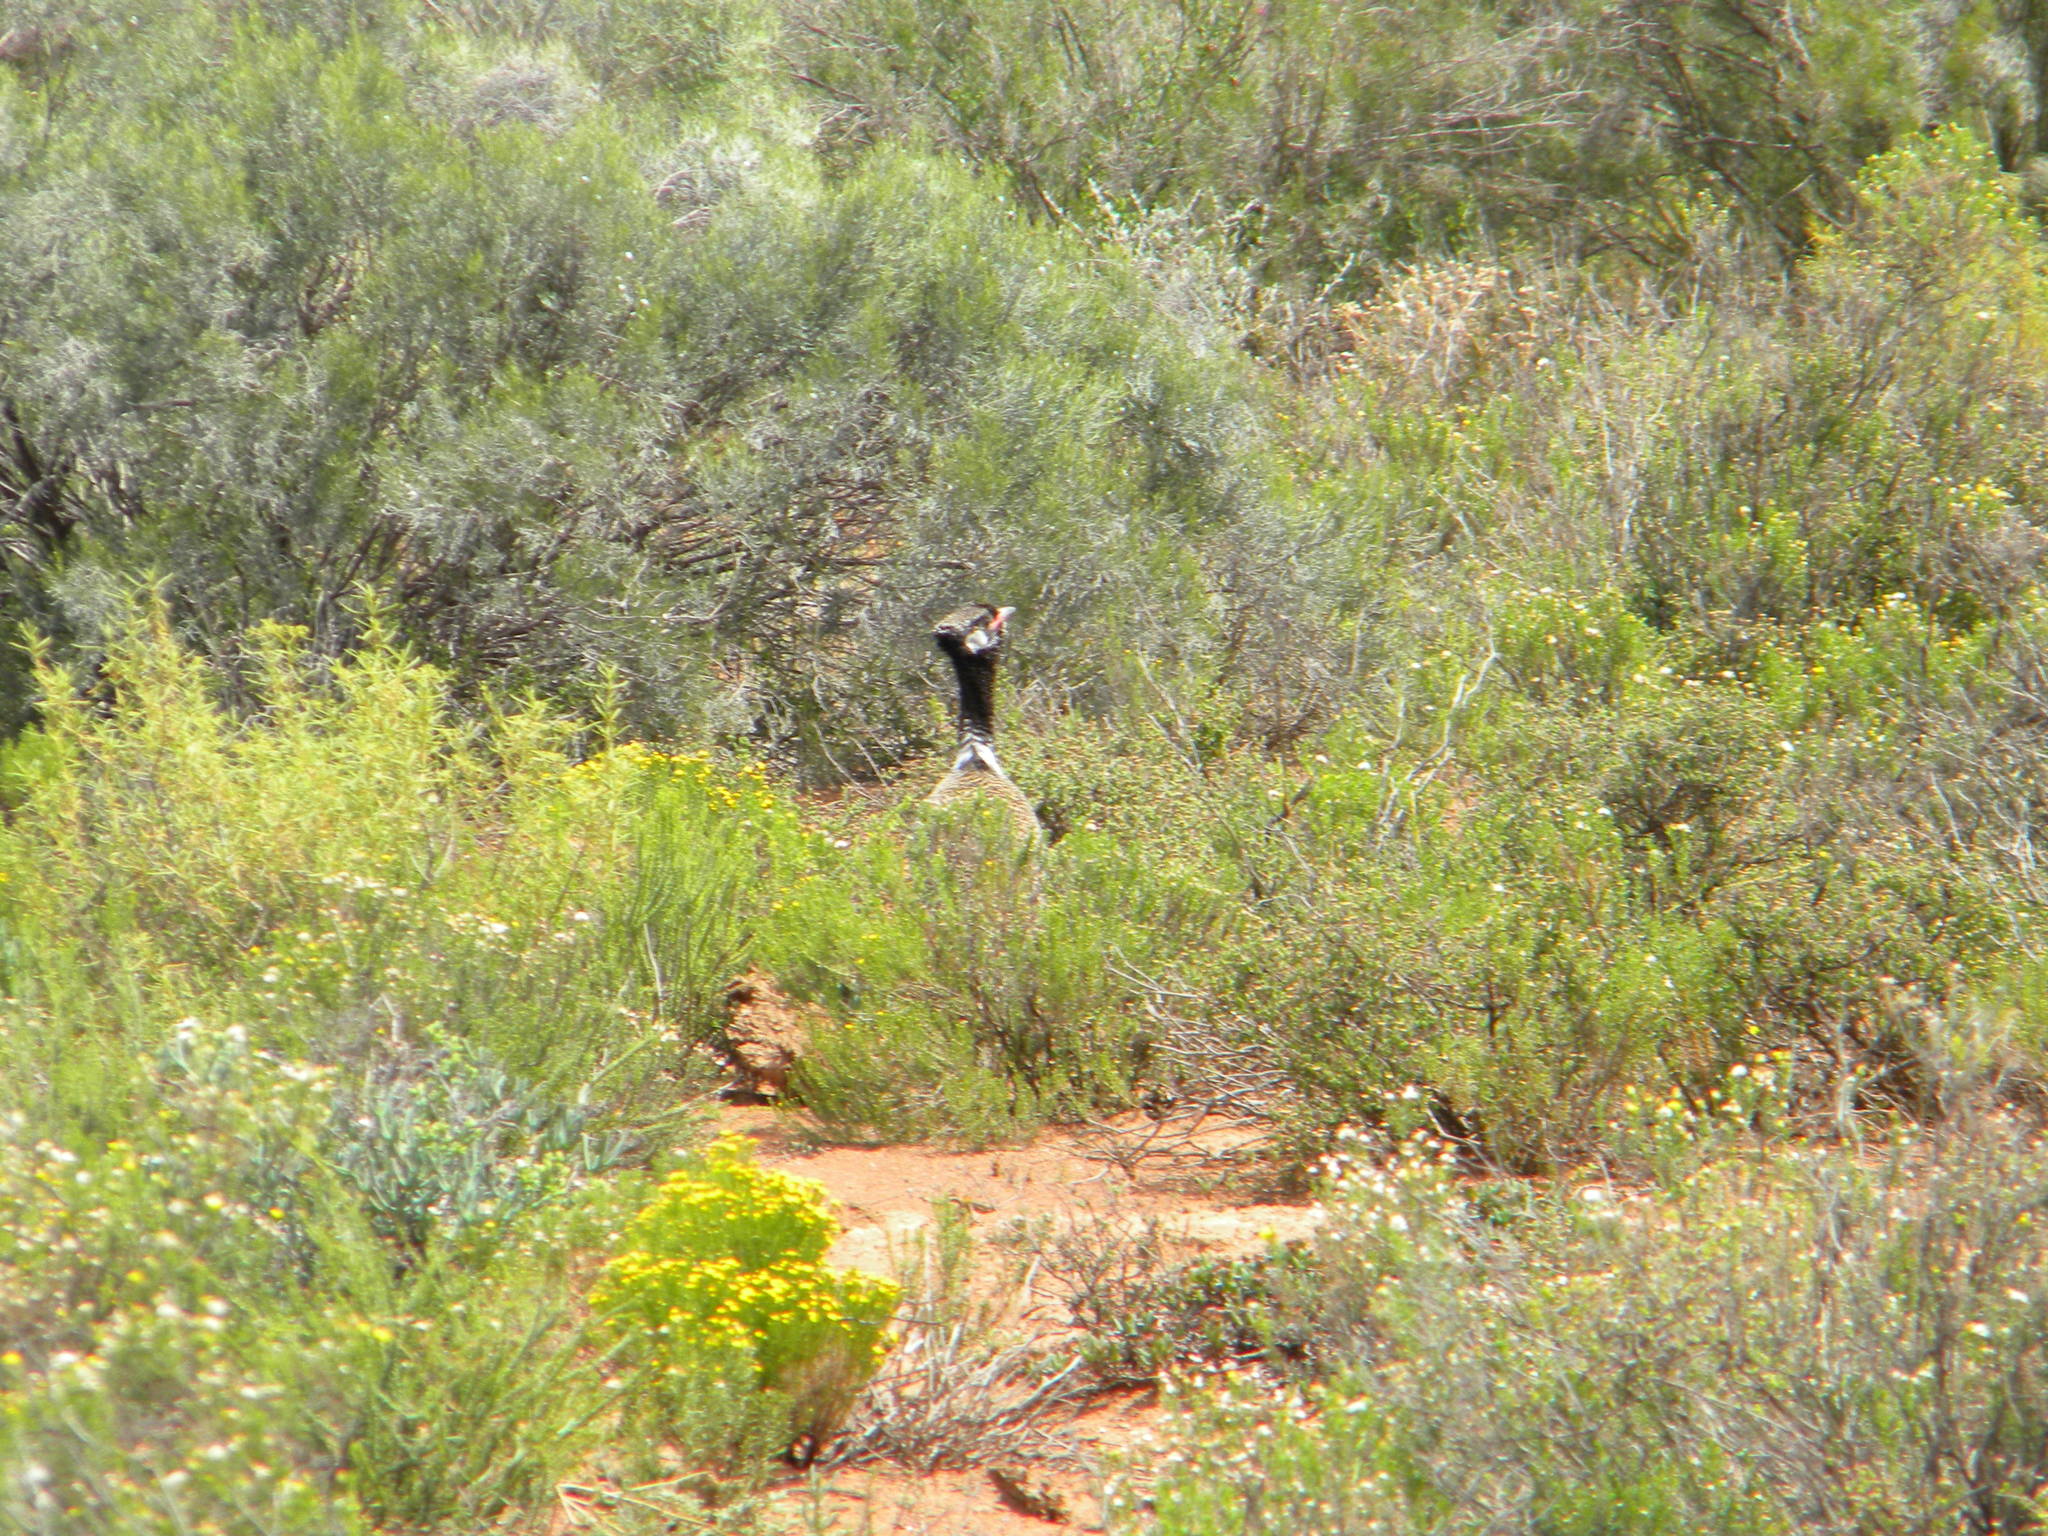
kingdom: Animalia
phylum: Chordata
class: Aves
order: Otidiformes
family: Otididae
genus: Afrotis
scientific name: Afrotis afra
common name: Southern black korhaan
